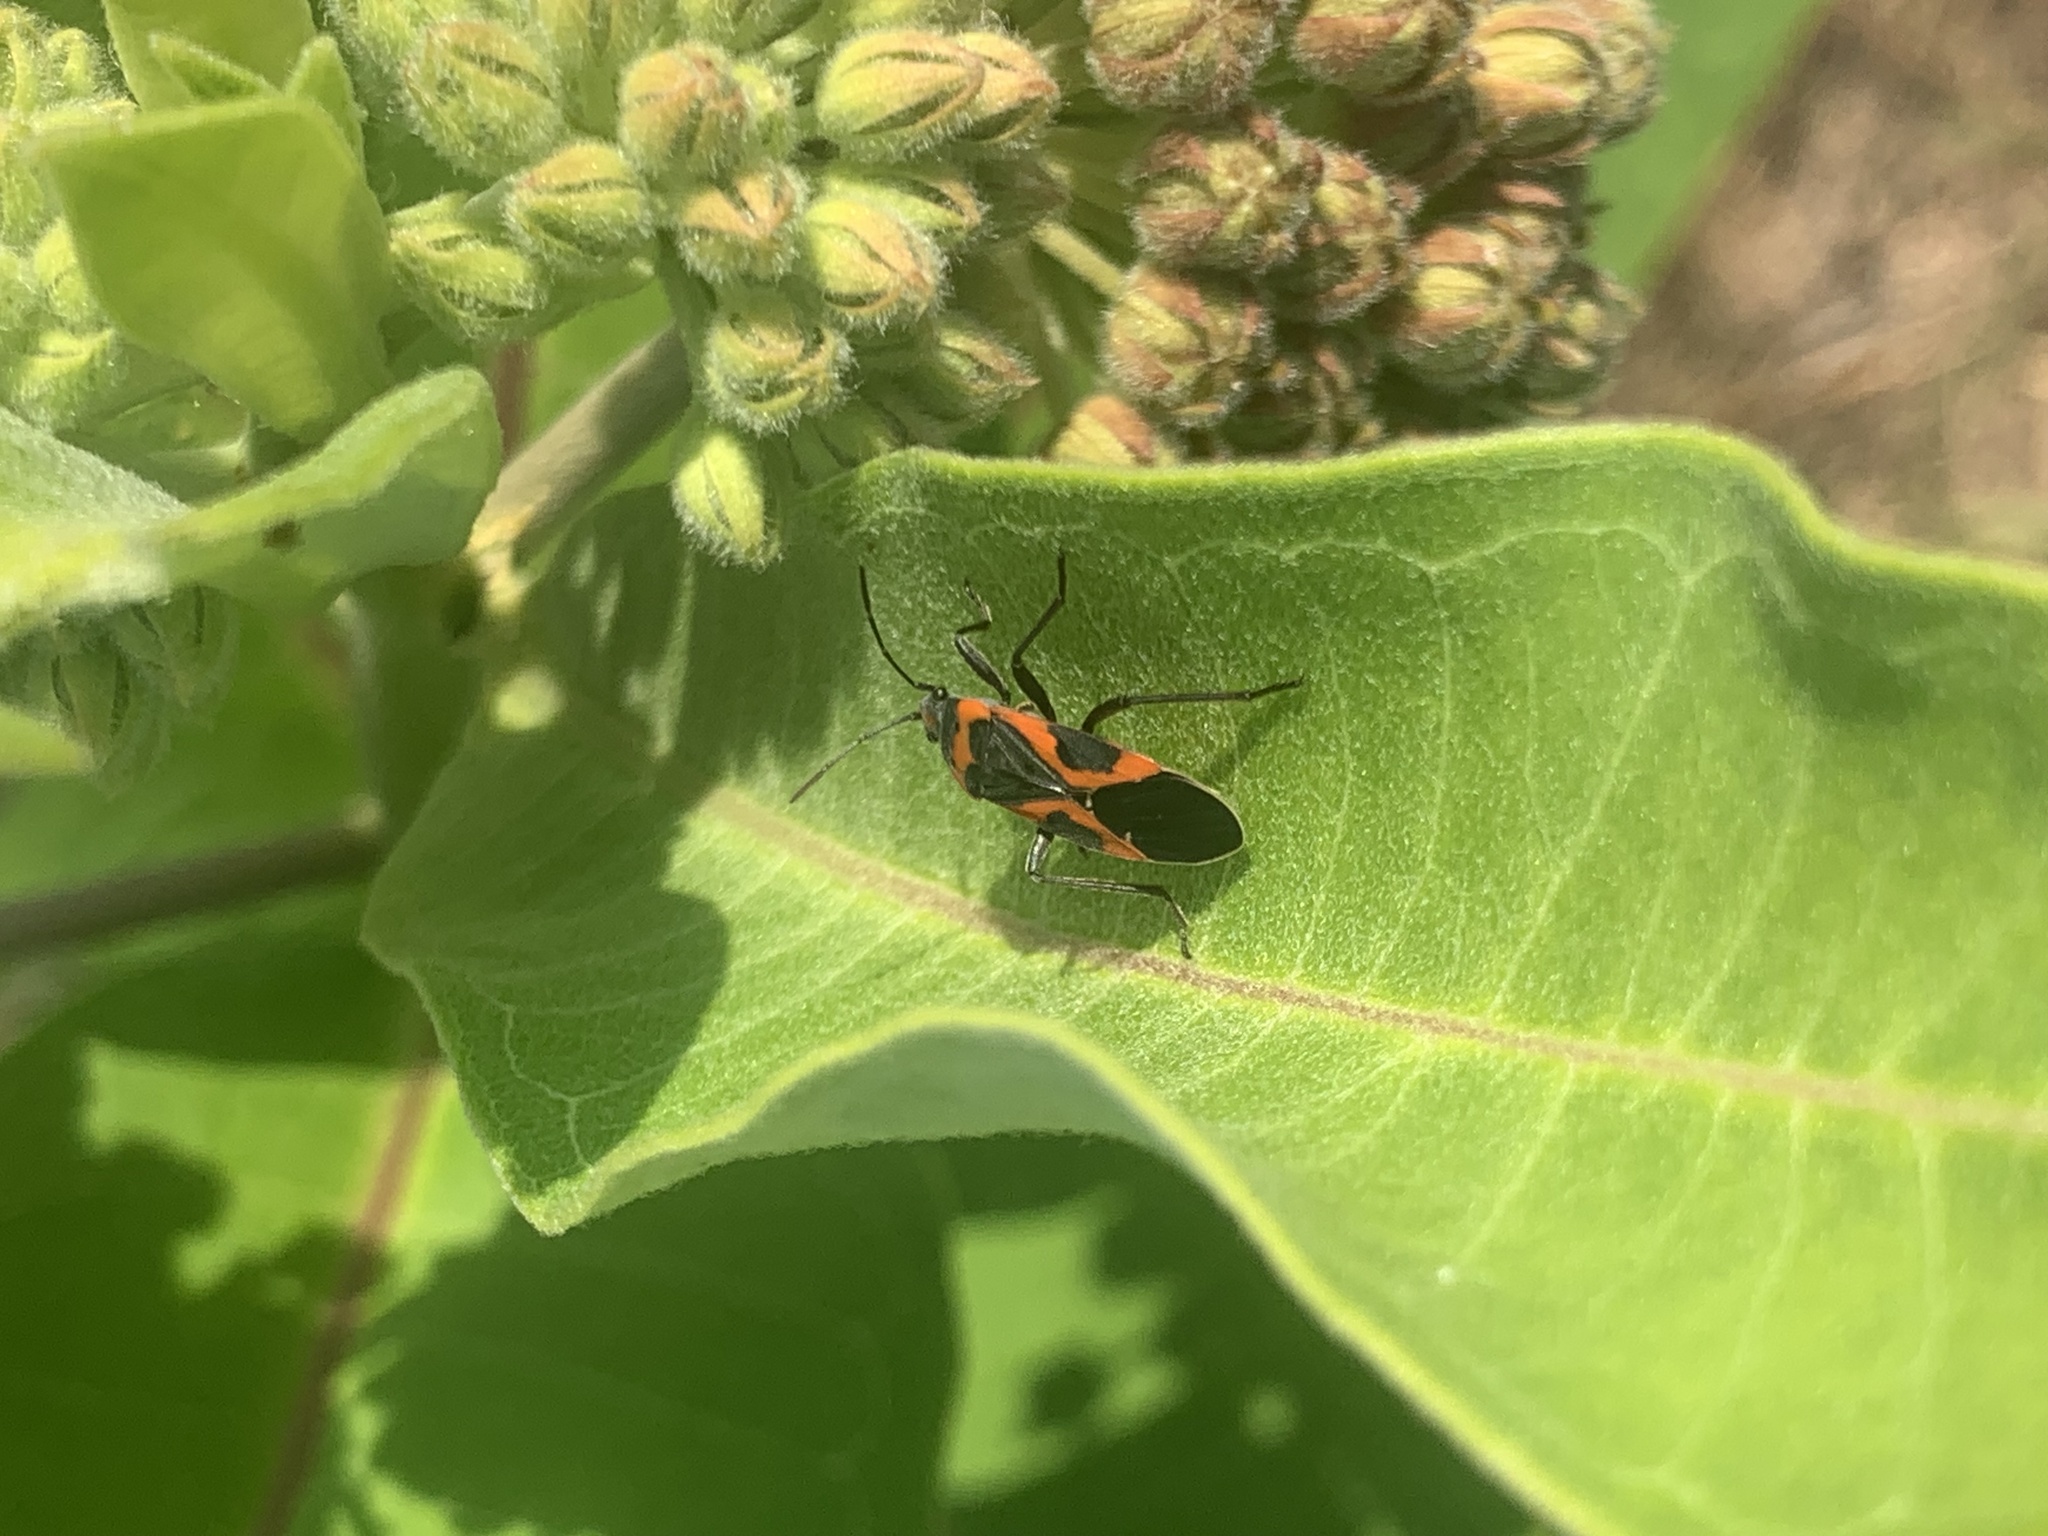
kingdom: Animalia
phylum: Arthropoda
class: Insecta
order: Hemiptera
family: Lygaeidae
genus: Lygaeus
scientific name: Lygaeus kalmii
